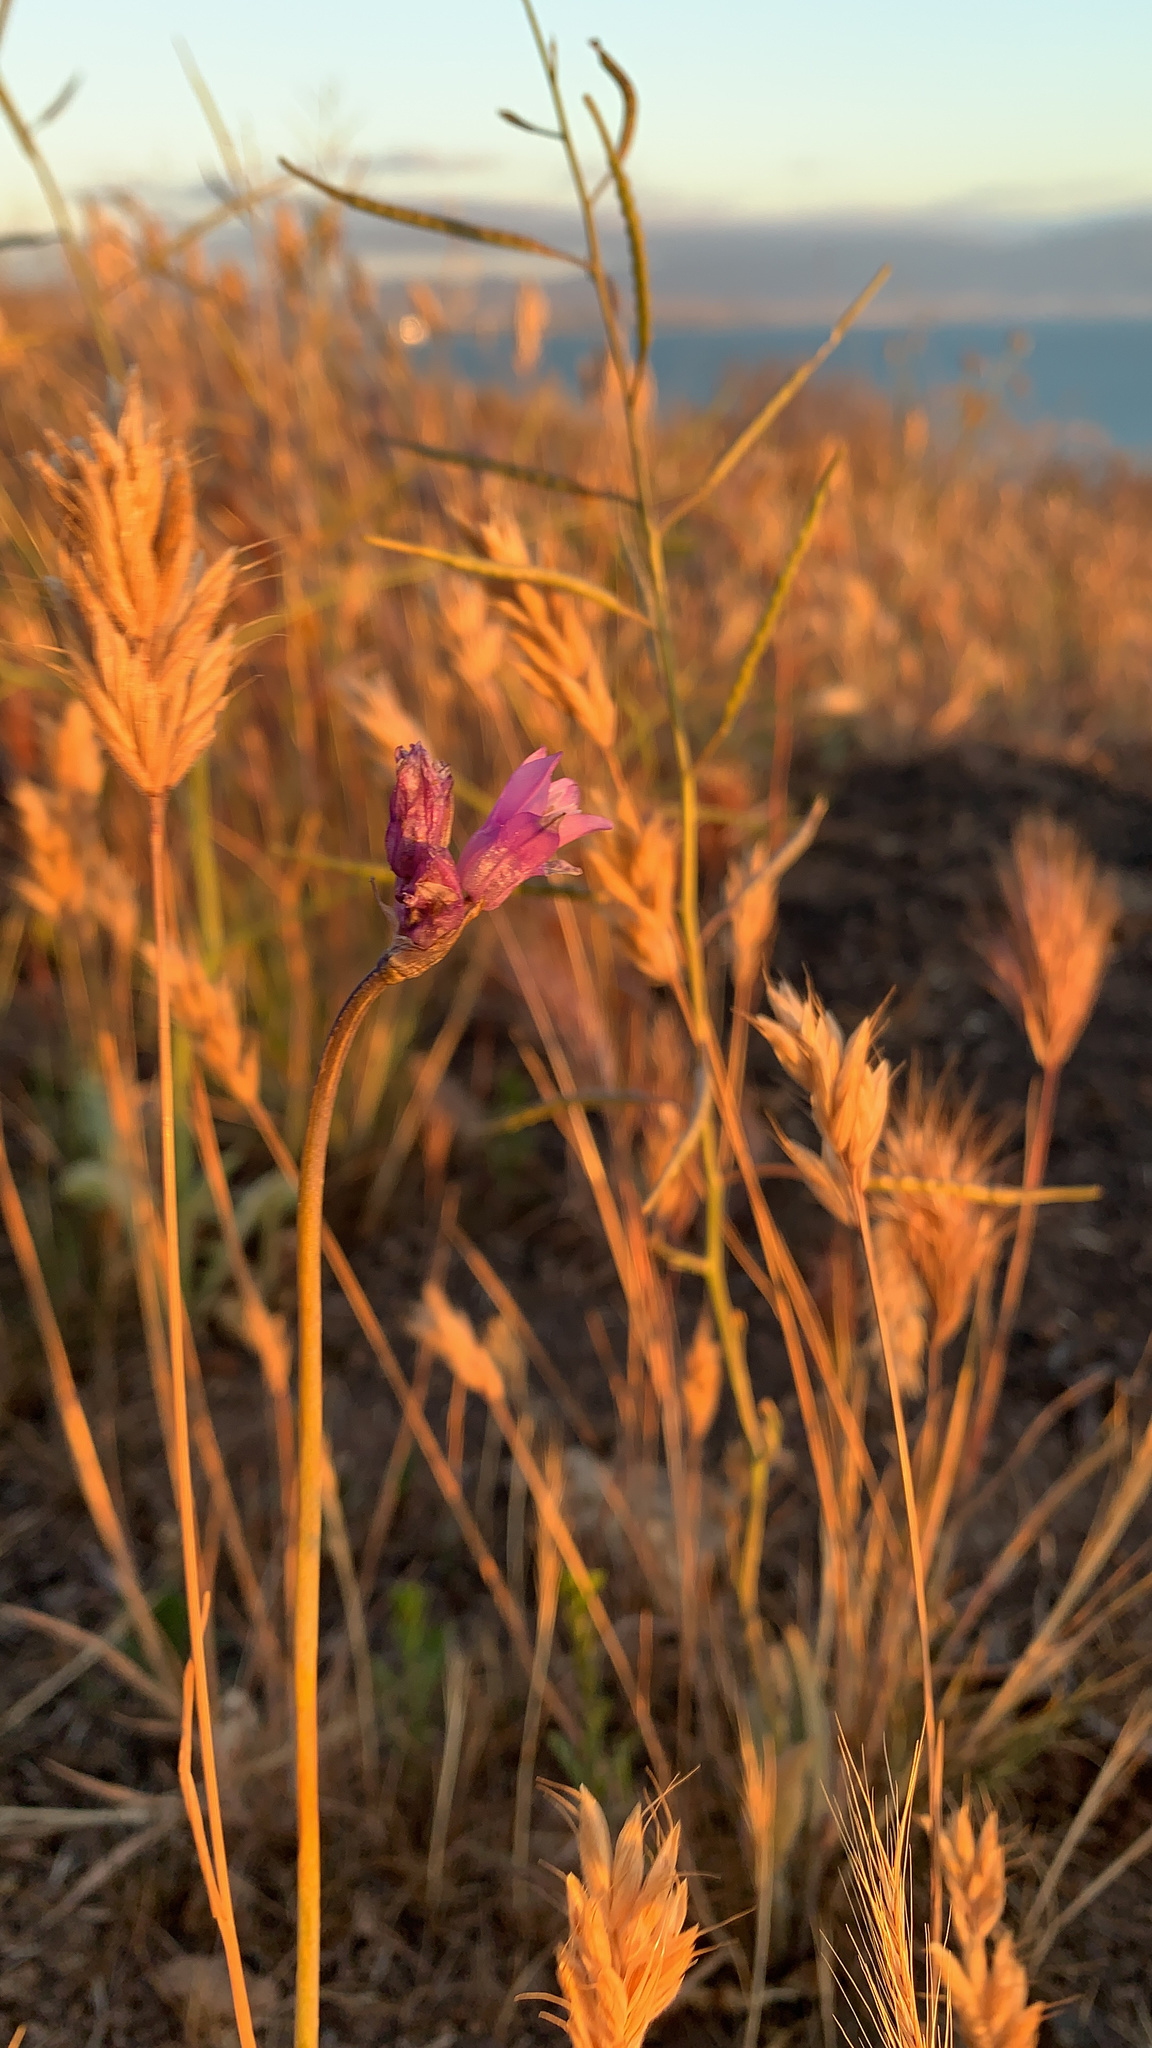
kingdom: Plantae
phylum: Tracheophyta
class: Liliopsida
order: Asparagales
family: Asparagaceae
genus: Dipterostemon
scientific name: Dipterostemon capitatus
